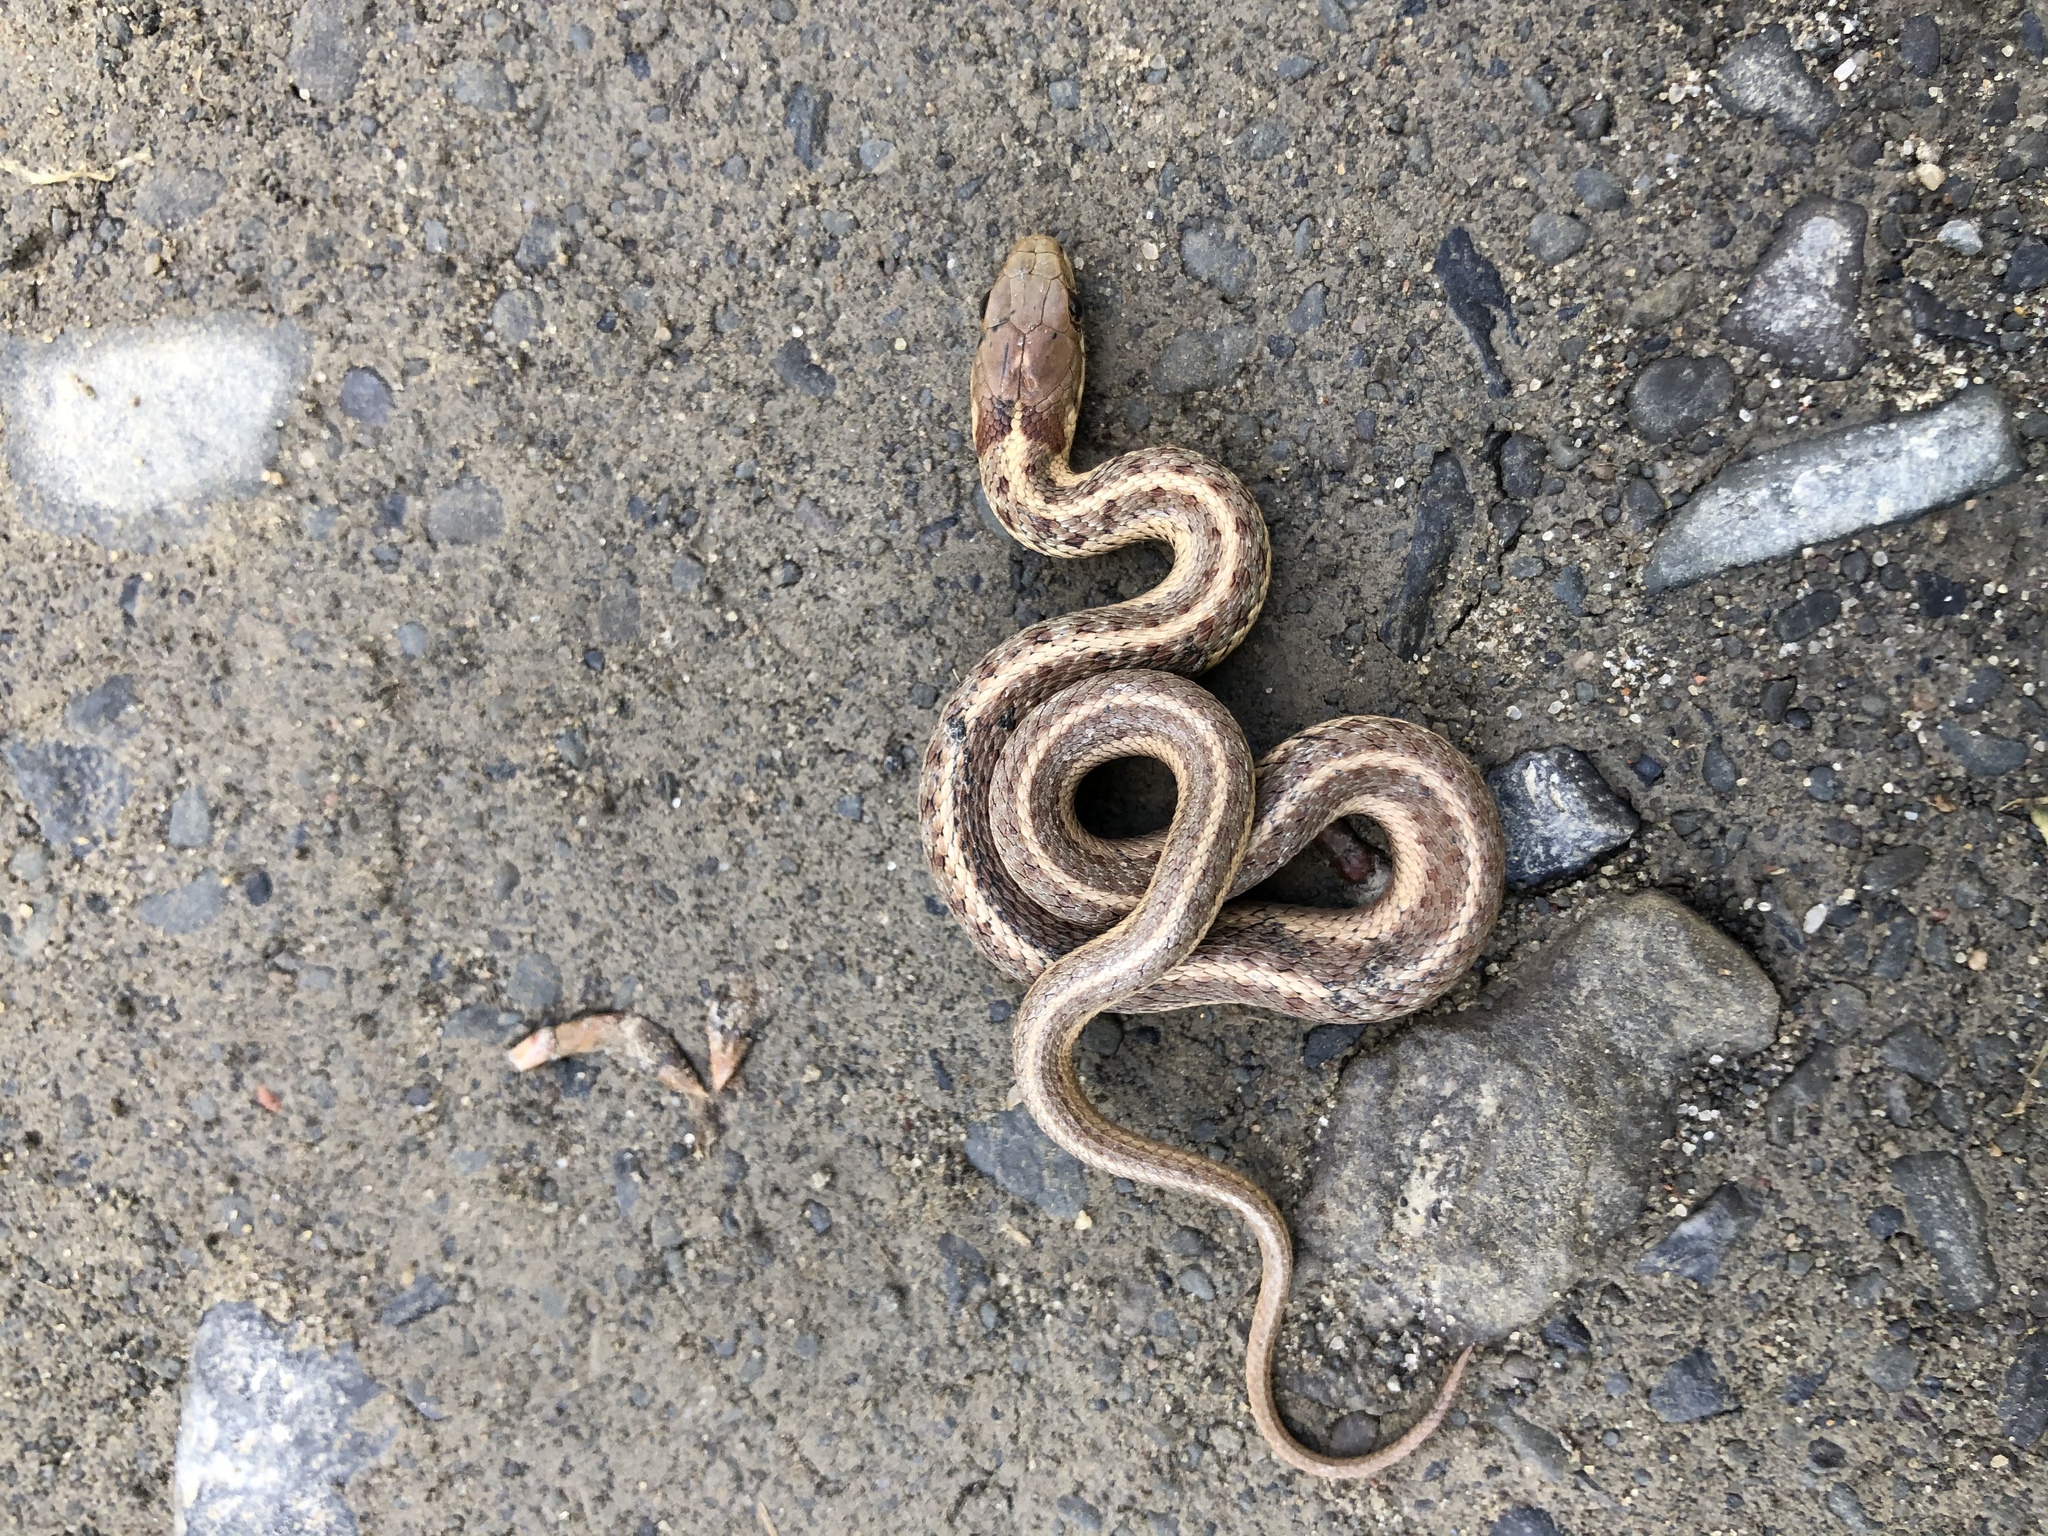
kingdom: Animalia
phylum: Chordata
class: Squamata
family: Colubridae
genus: Thamnophis
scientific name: Thamnophis sirtalis
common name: Common garter snake
